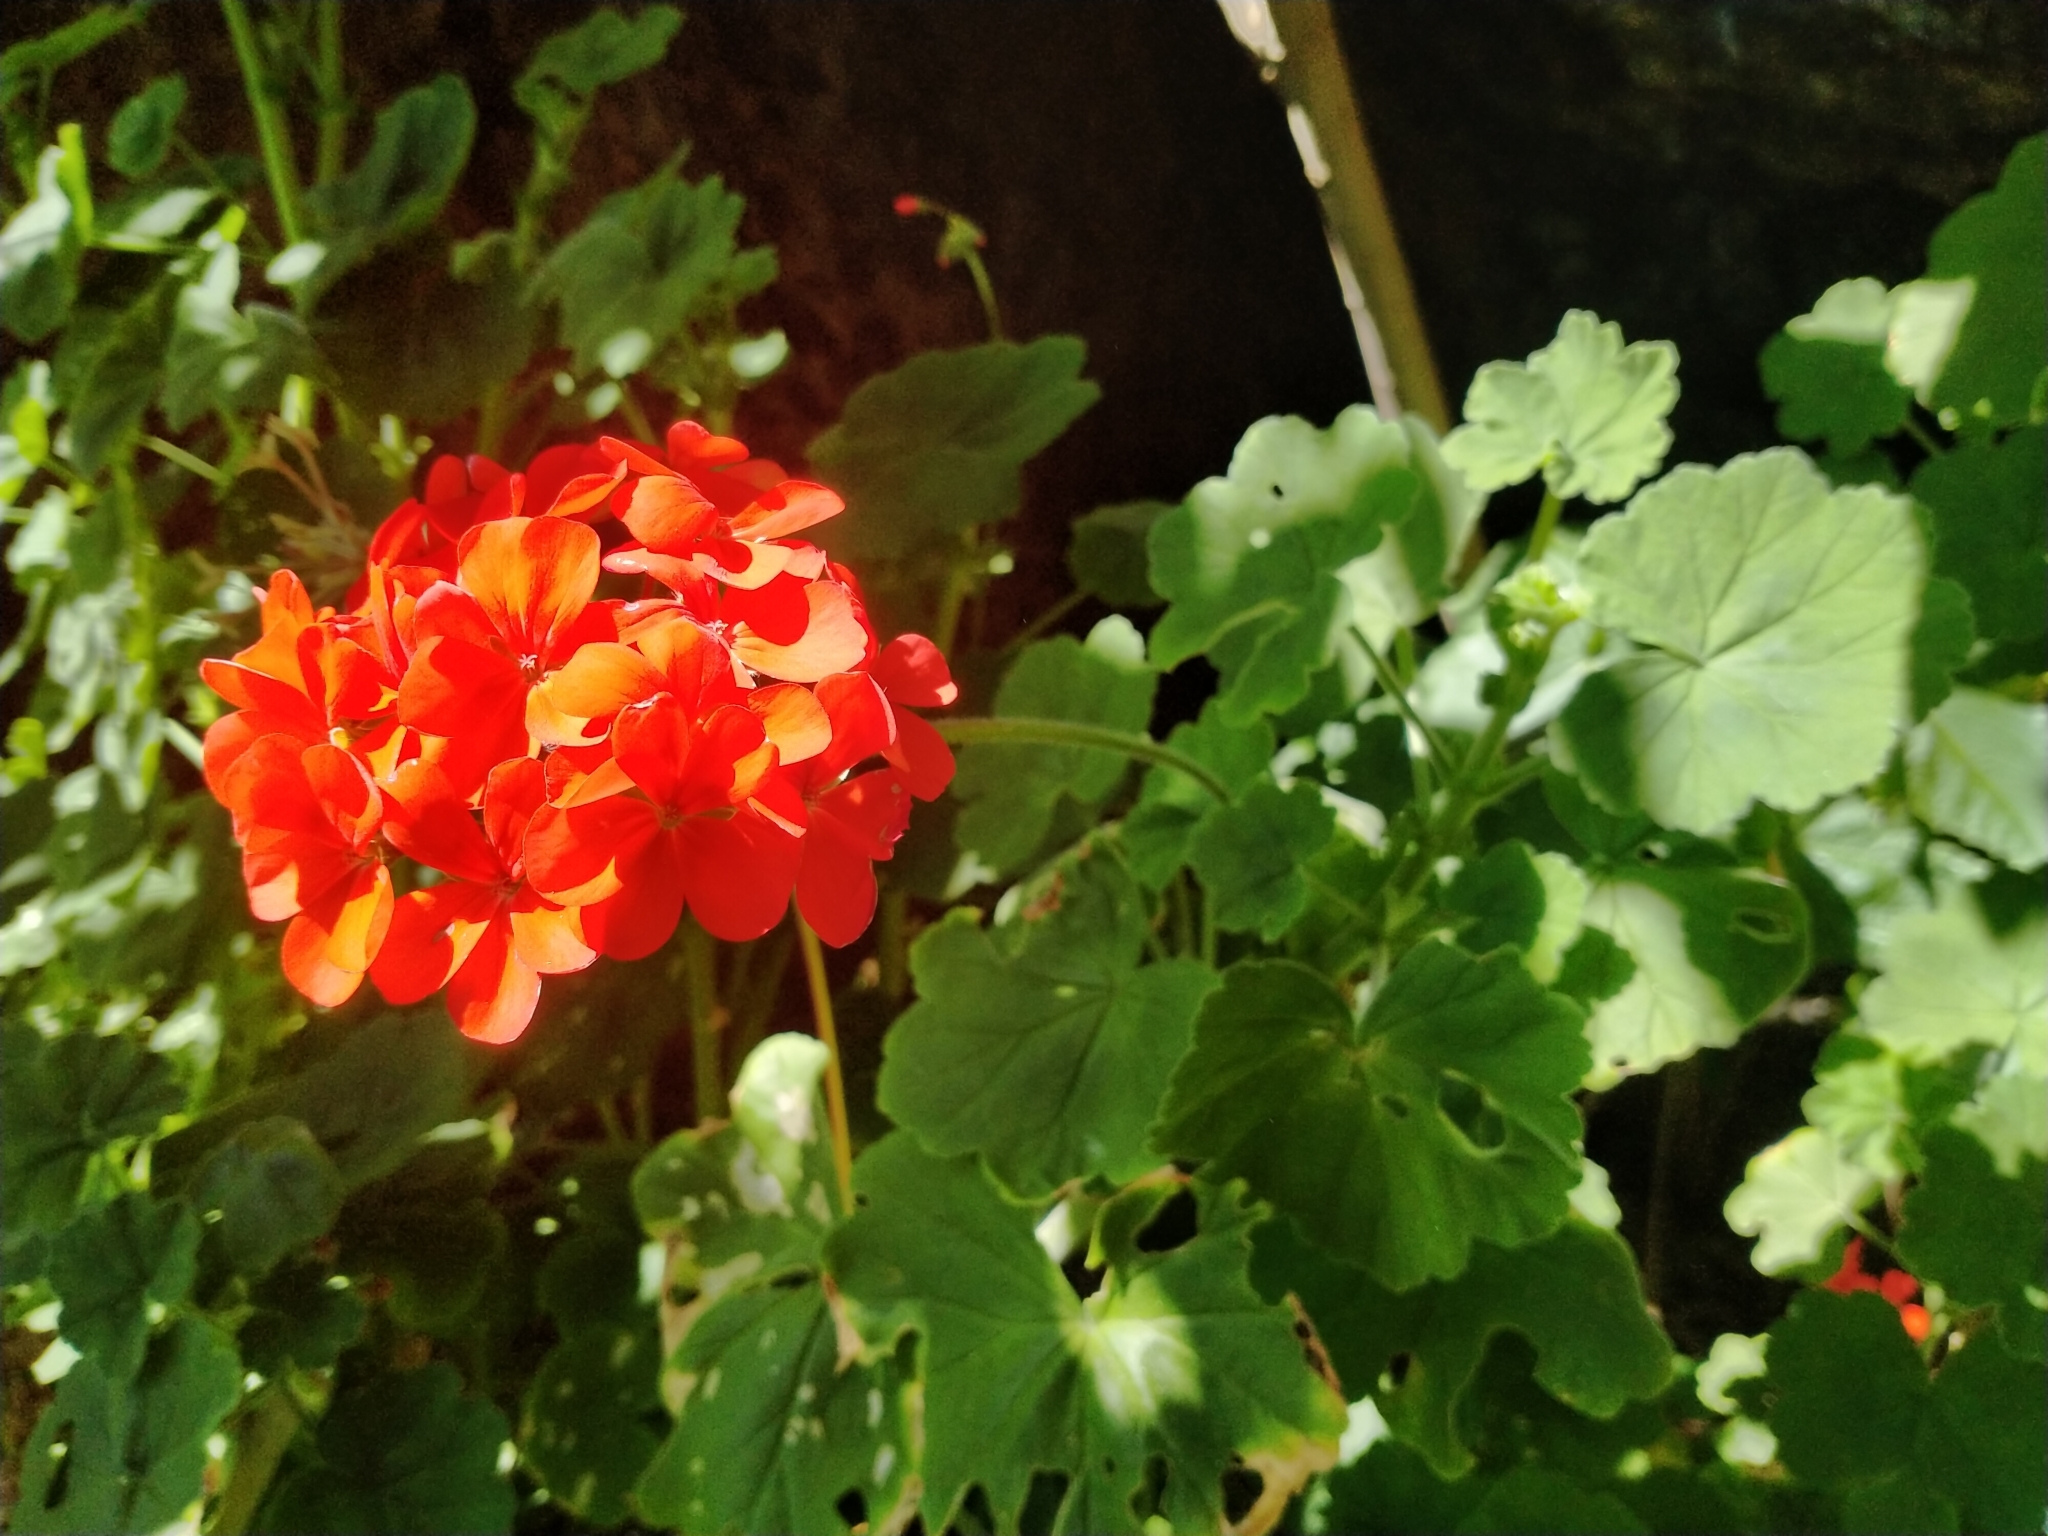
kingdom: Plantae
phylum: Tracheophyta
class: Magnoliopsida
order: Geraniales
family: Geraniaceae
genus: Pelargonium
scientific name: Pelargonium hybridum
